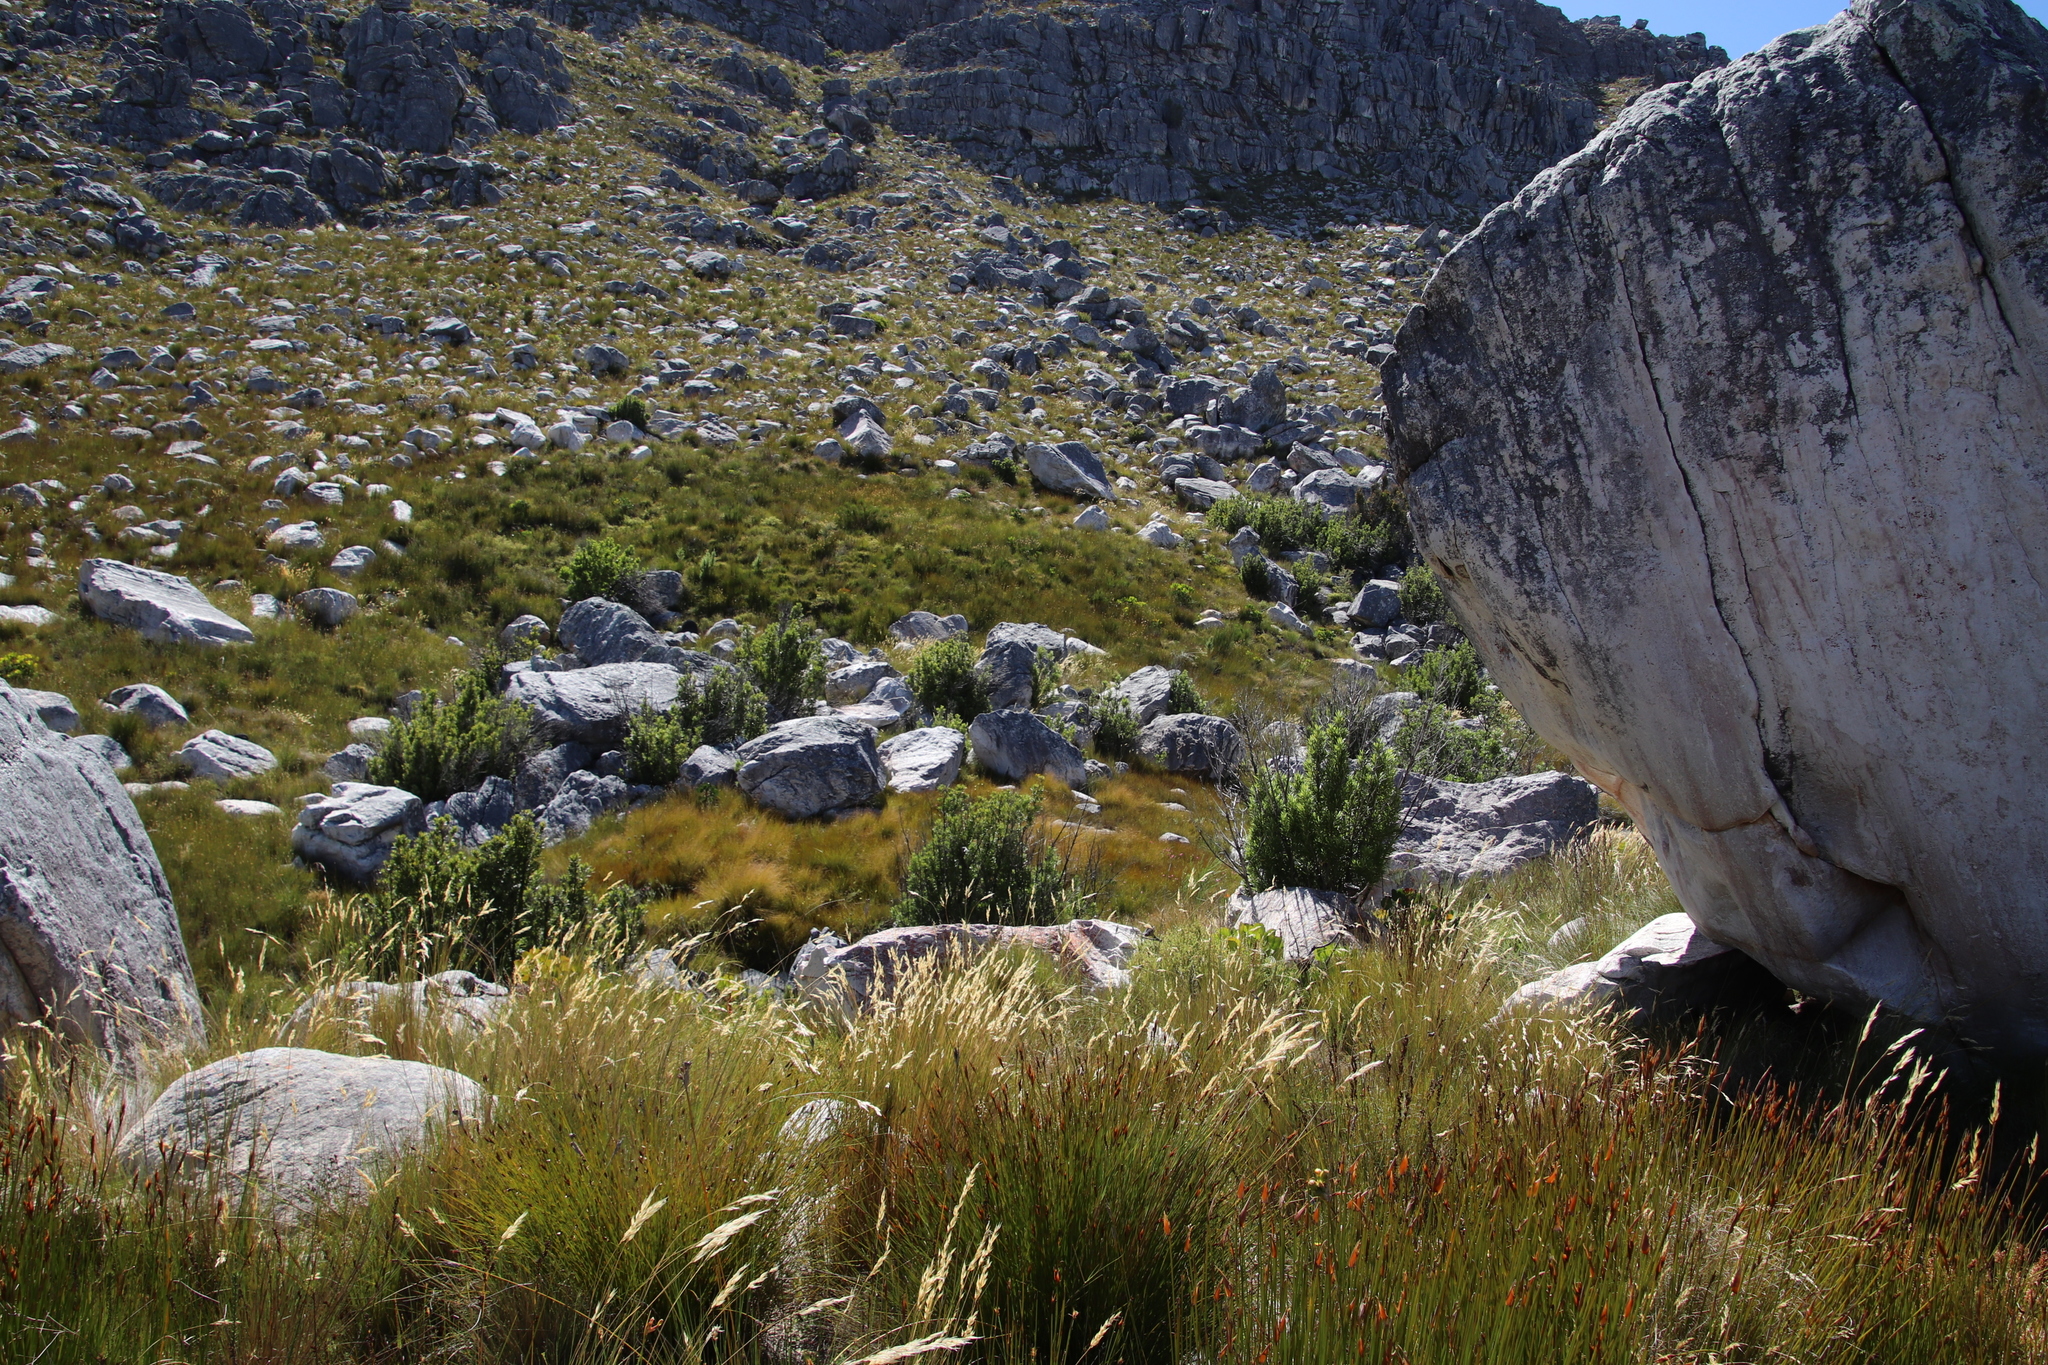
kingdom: Plantae
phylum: Tracheophyta
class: Magnoliopsida
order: Sapindales
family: Anacardiaceae
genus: Searsia
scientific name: Searsia angustifolia
